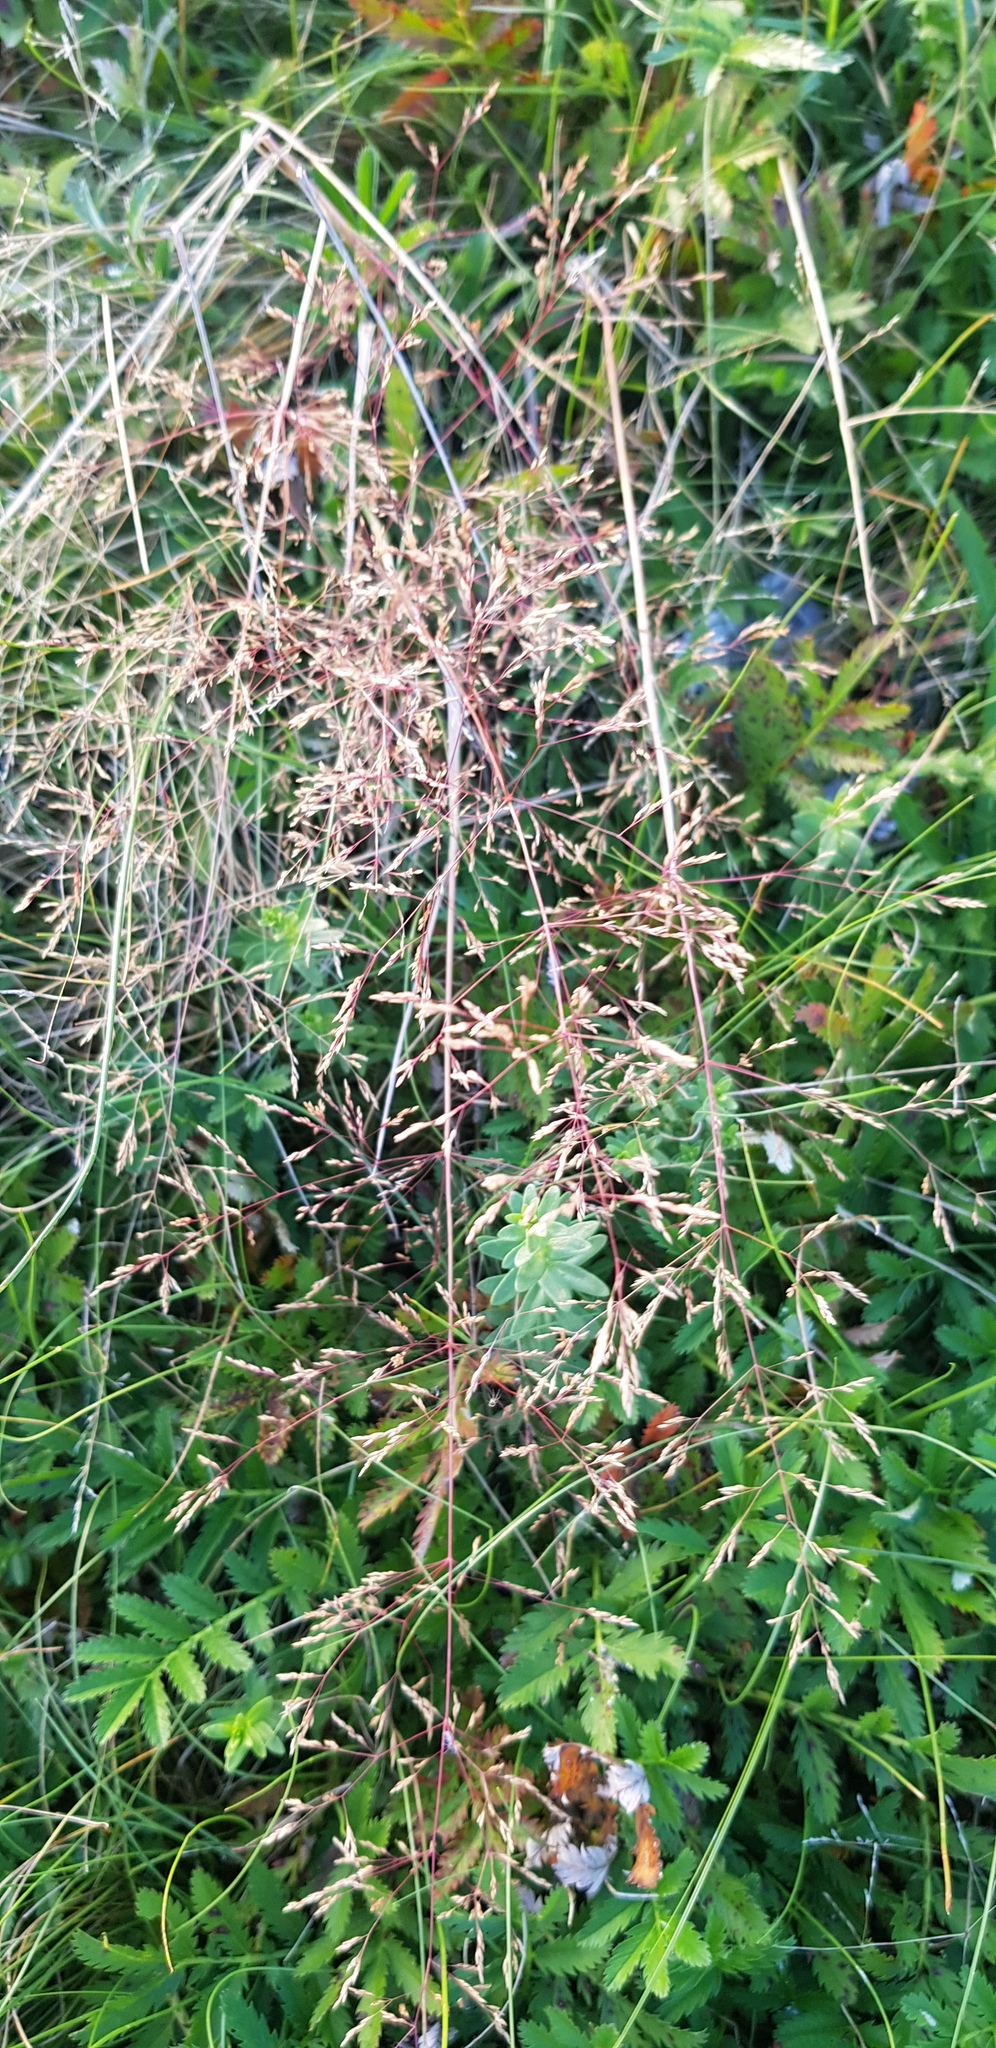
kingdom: Plantae
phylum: Tracheophyta
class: Liliopsida
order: Poales
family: Poaceae
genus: Puccinellia
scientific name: Puccinellia distans
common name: Weeping alkaligrass
